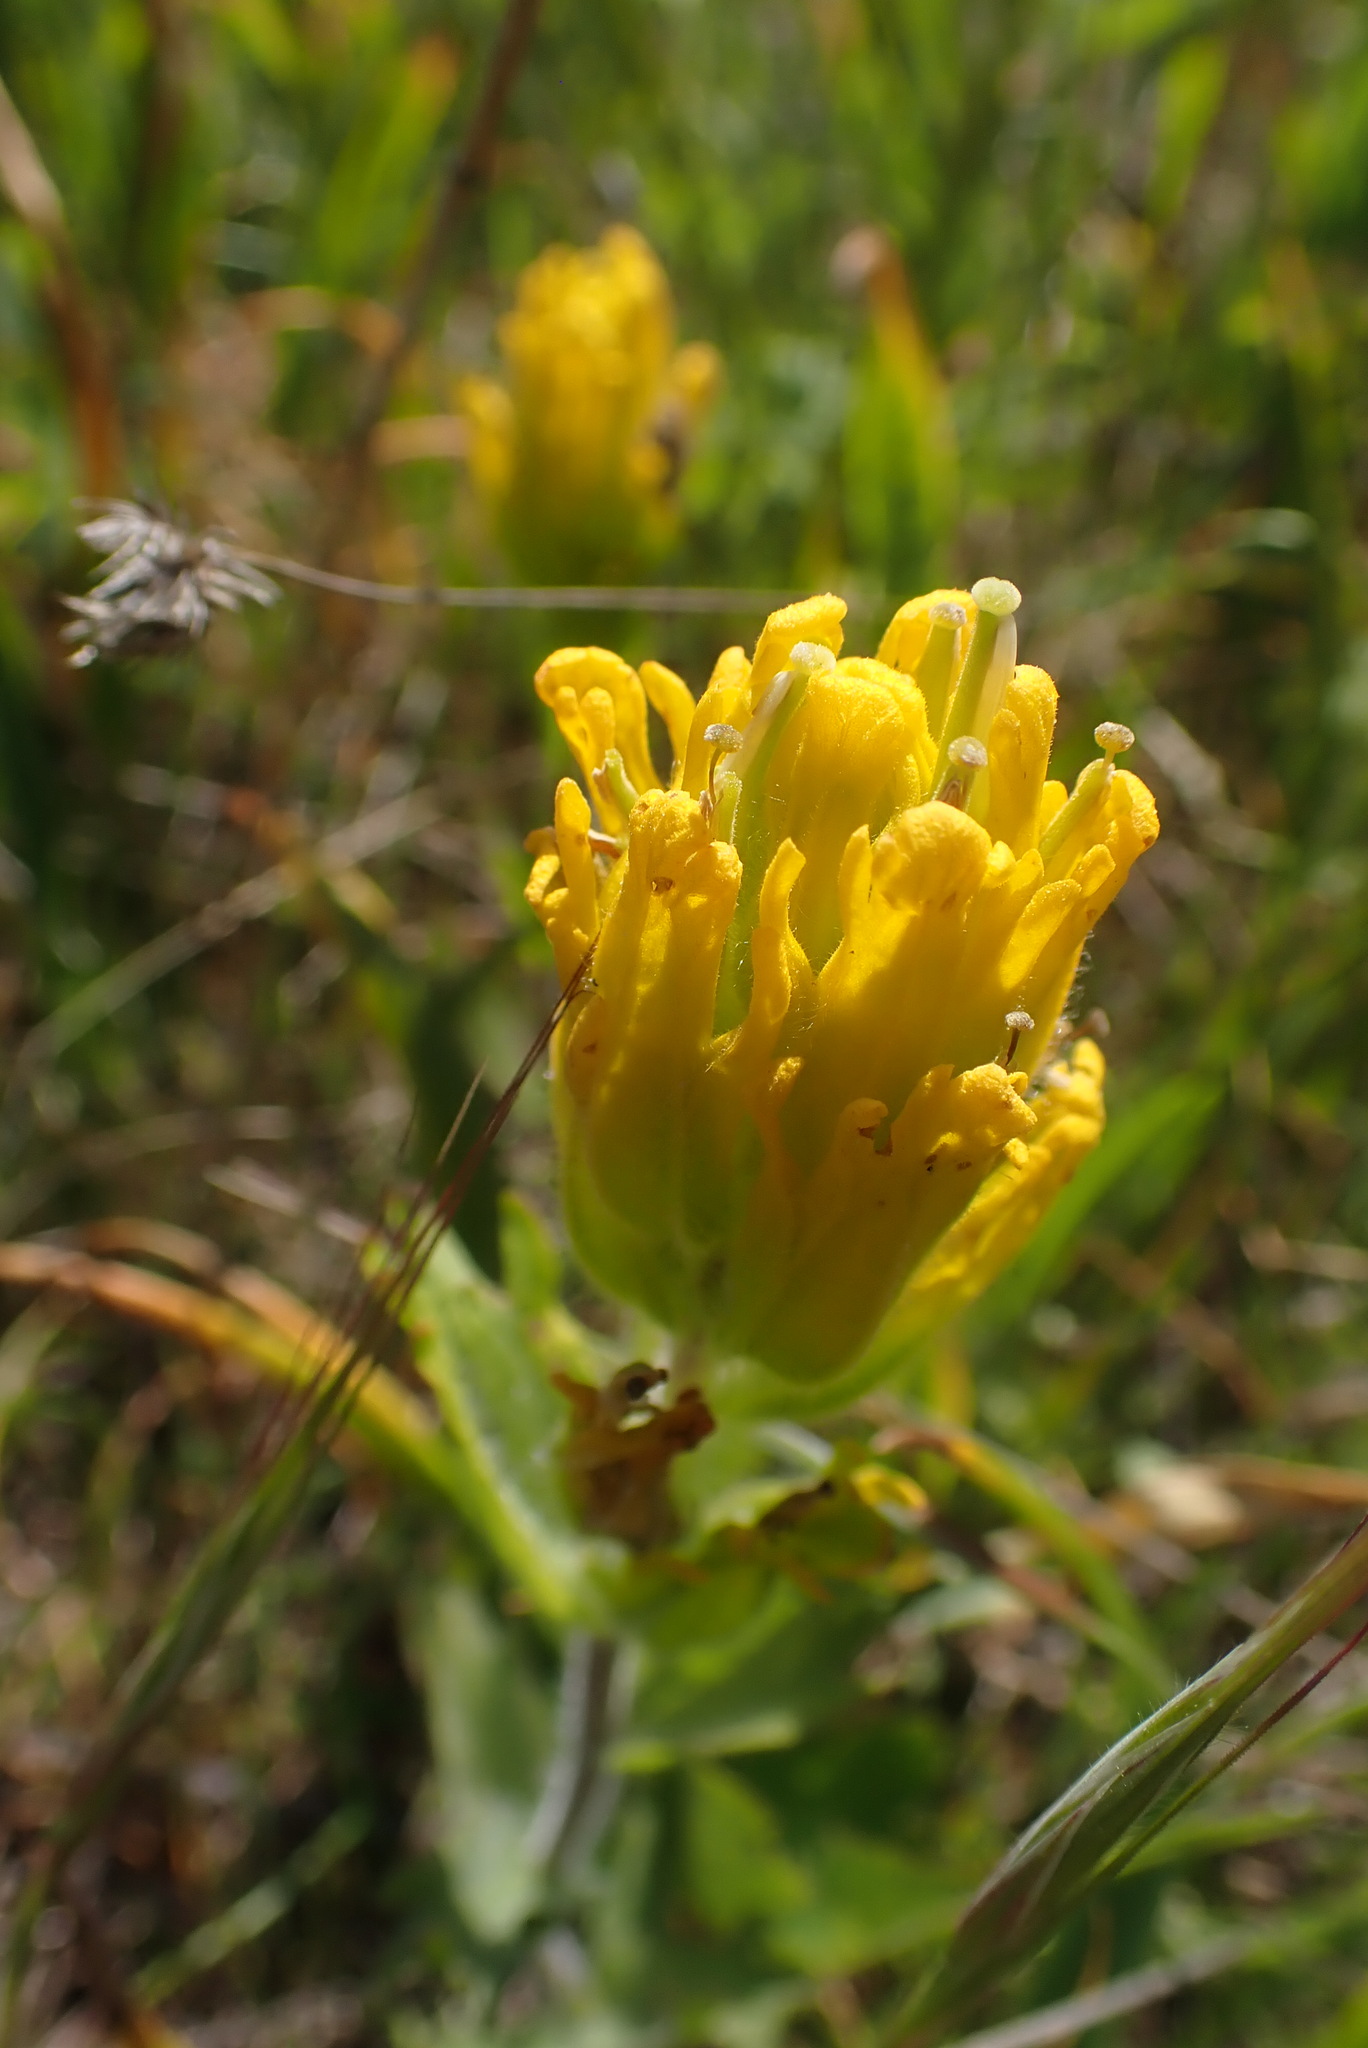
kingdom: Plantae
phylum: Tracheophyta
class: Magnoliopsida
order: Lamiales
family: Orobanchaceae
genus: Castilleja
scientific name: Castilleja levisecta
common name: Golden paintbrush
